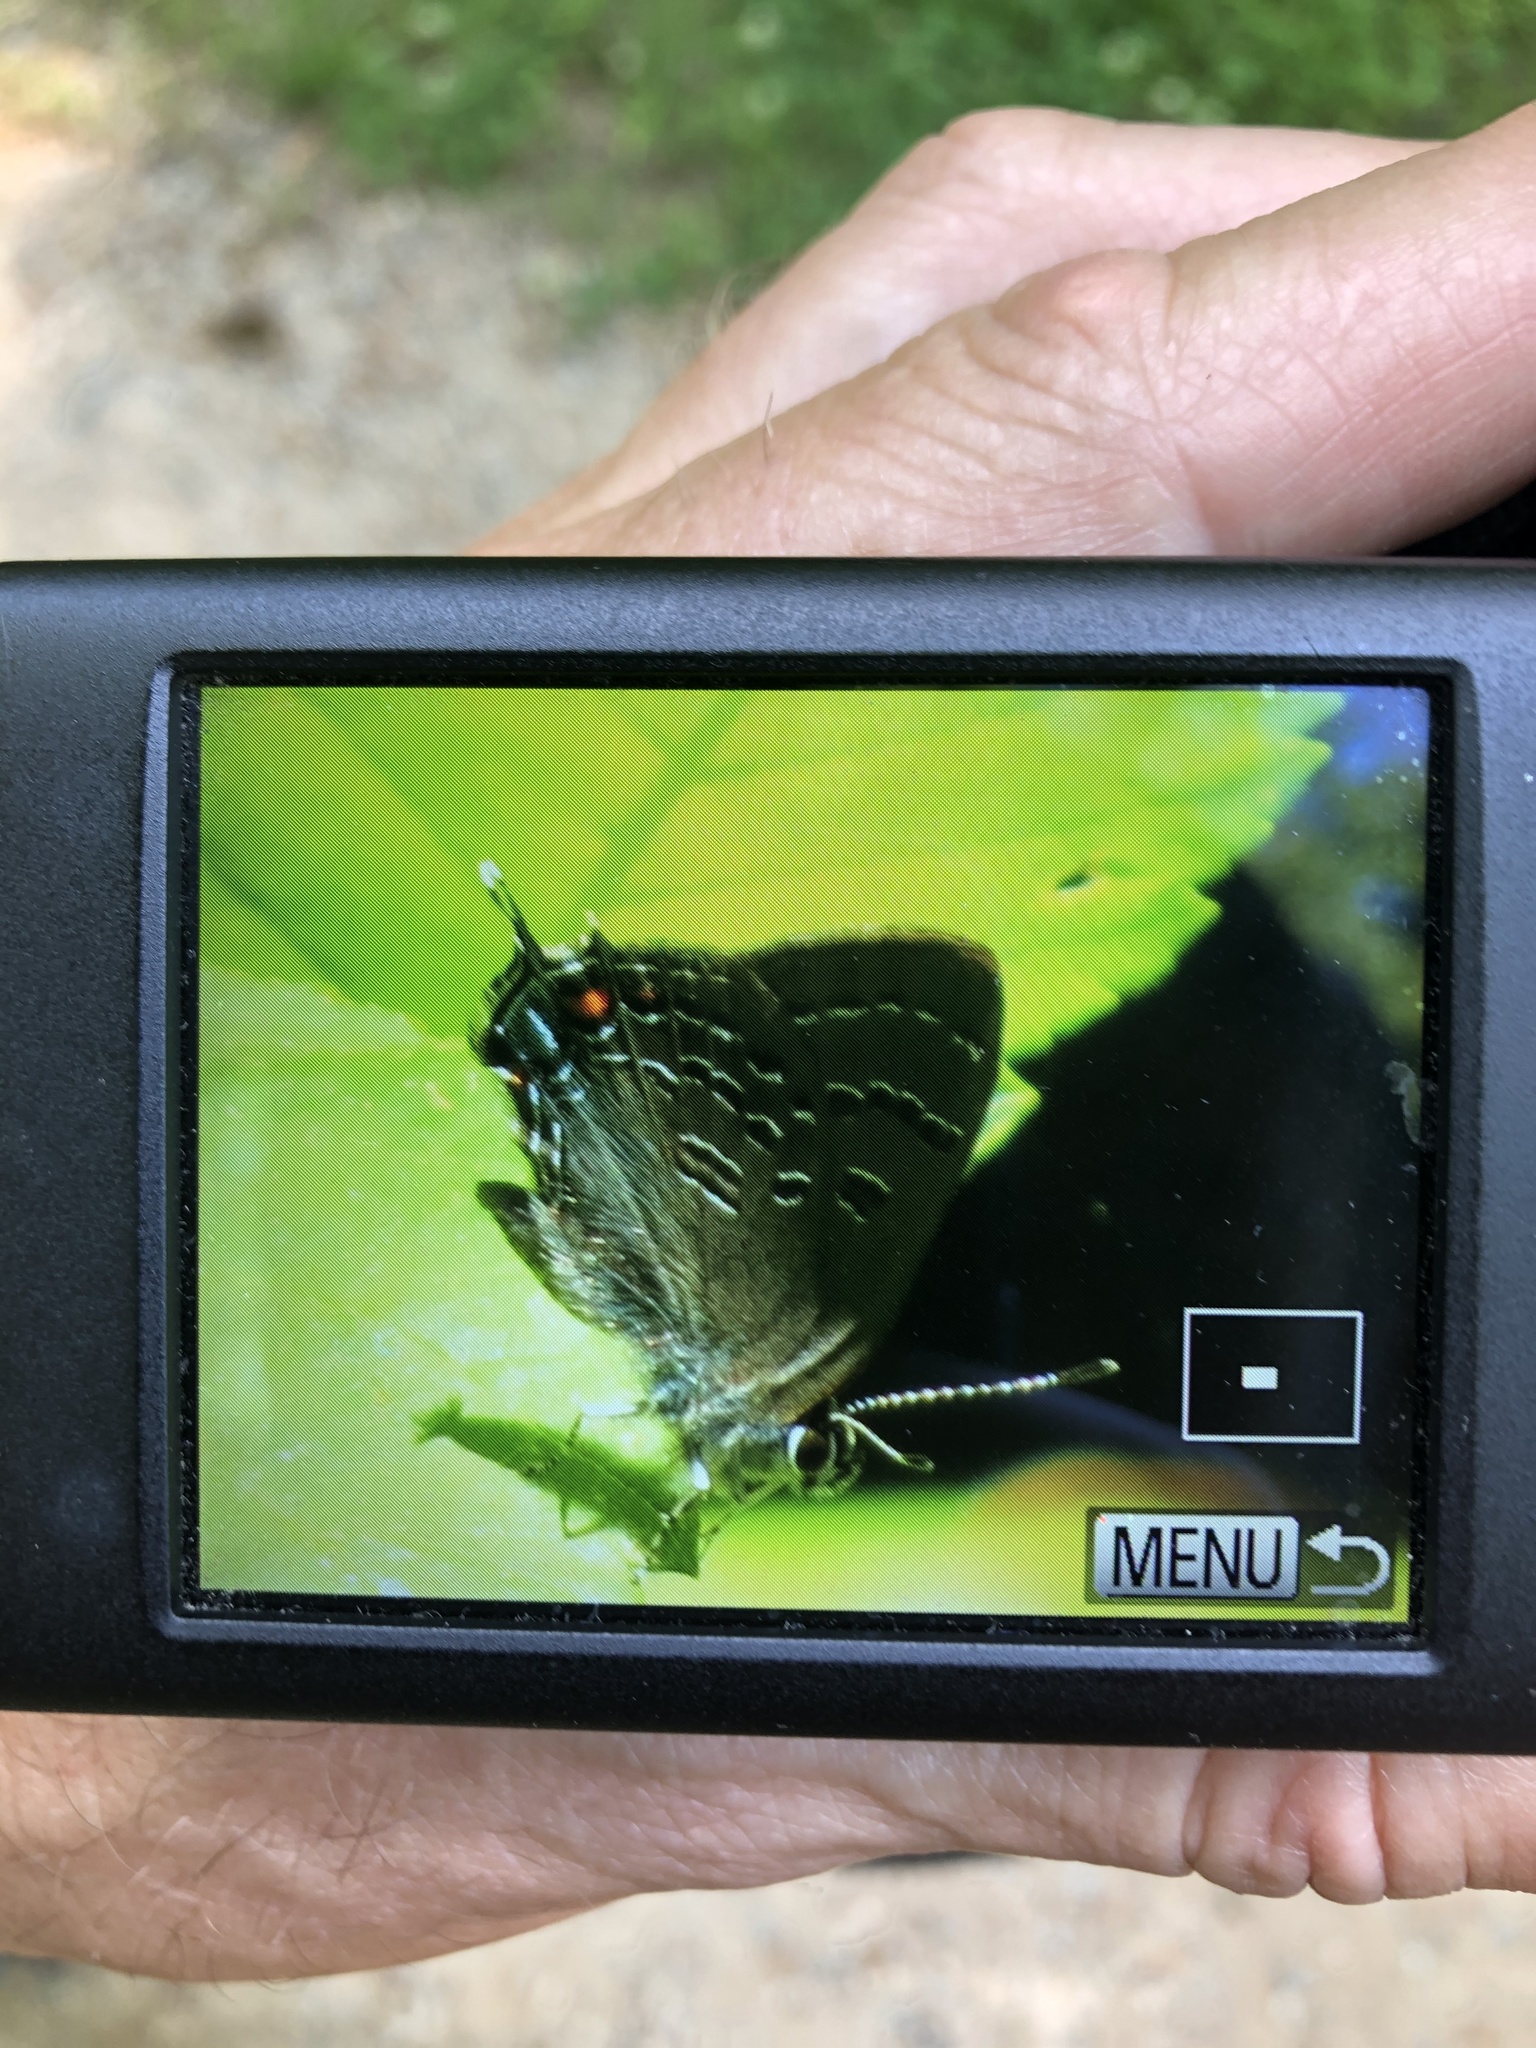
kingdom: Animalia
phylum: Arthropoda
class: Insecta
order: Lepidoptera
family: Lycaenidae
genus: Satyrium
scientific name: Satyrium calanus
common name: Banded hairstreak
